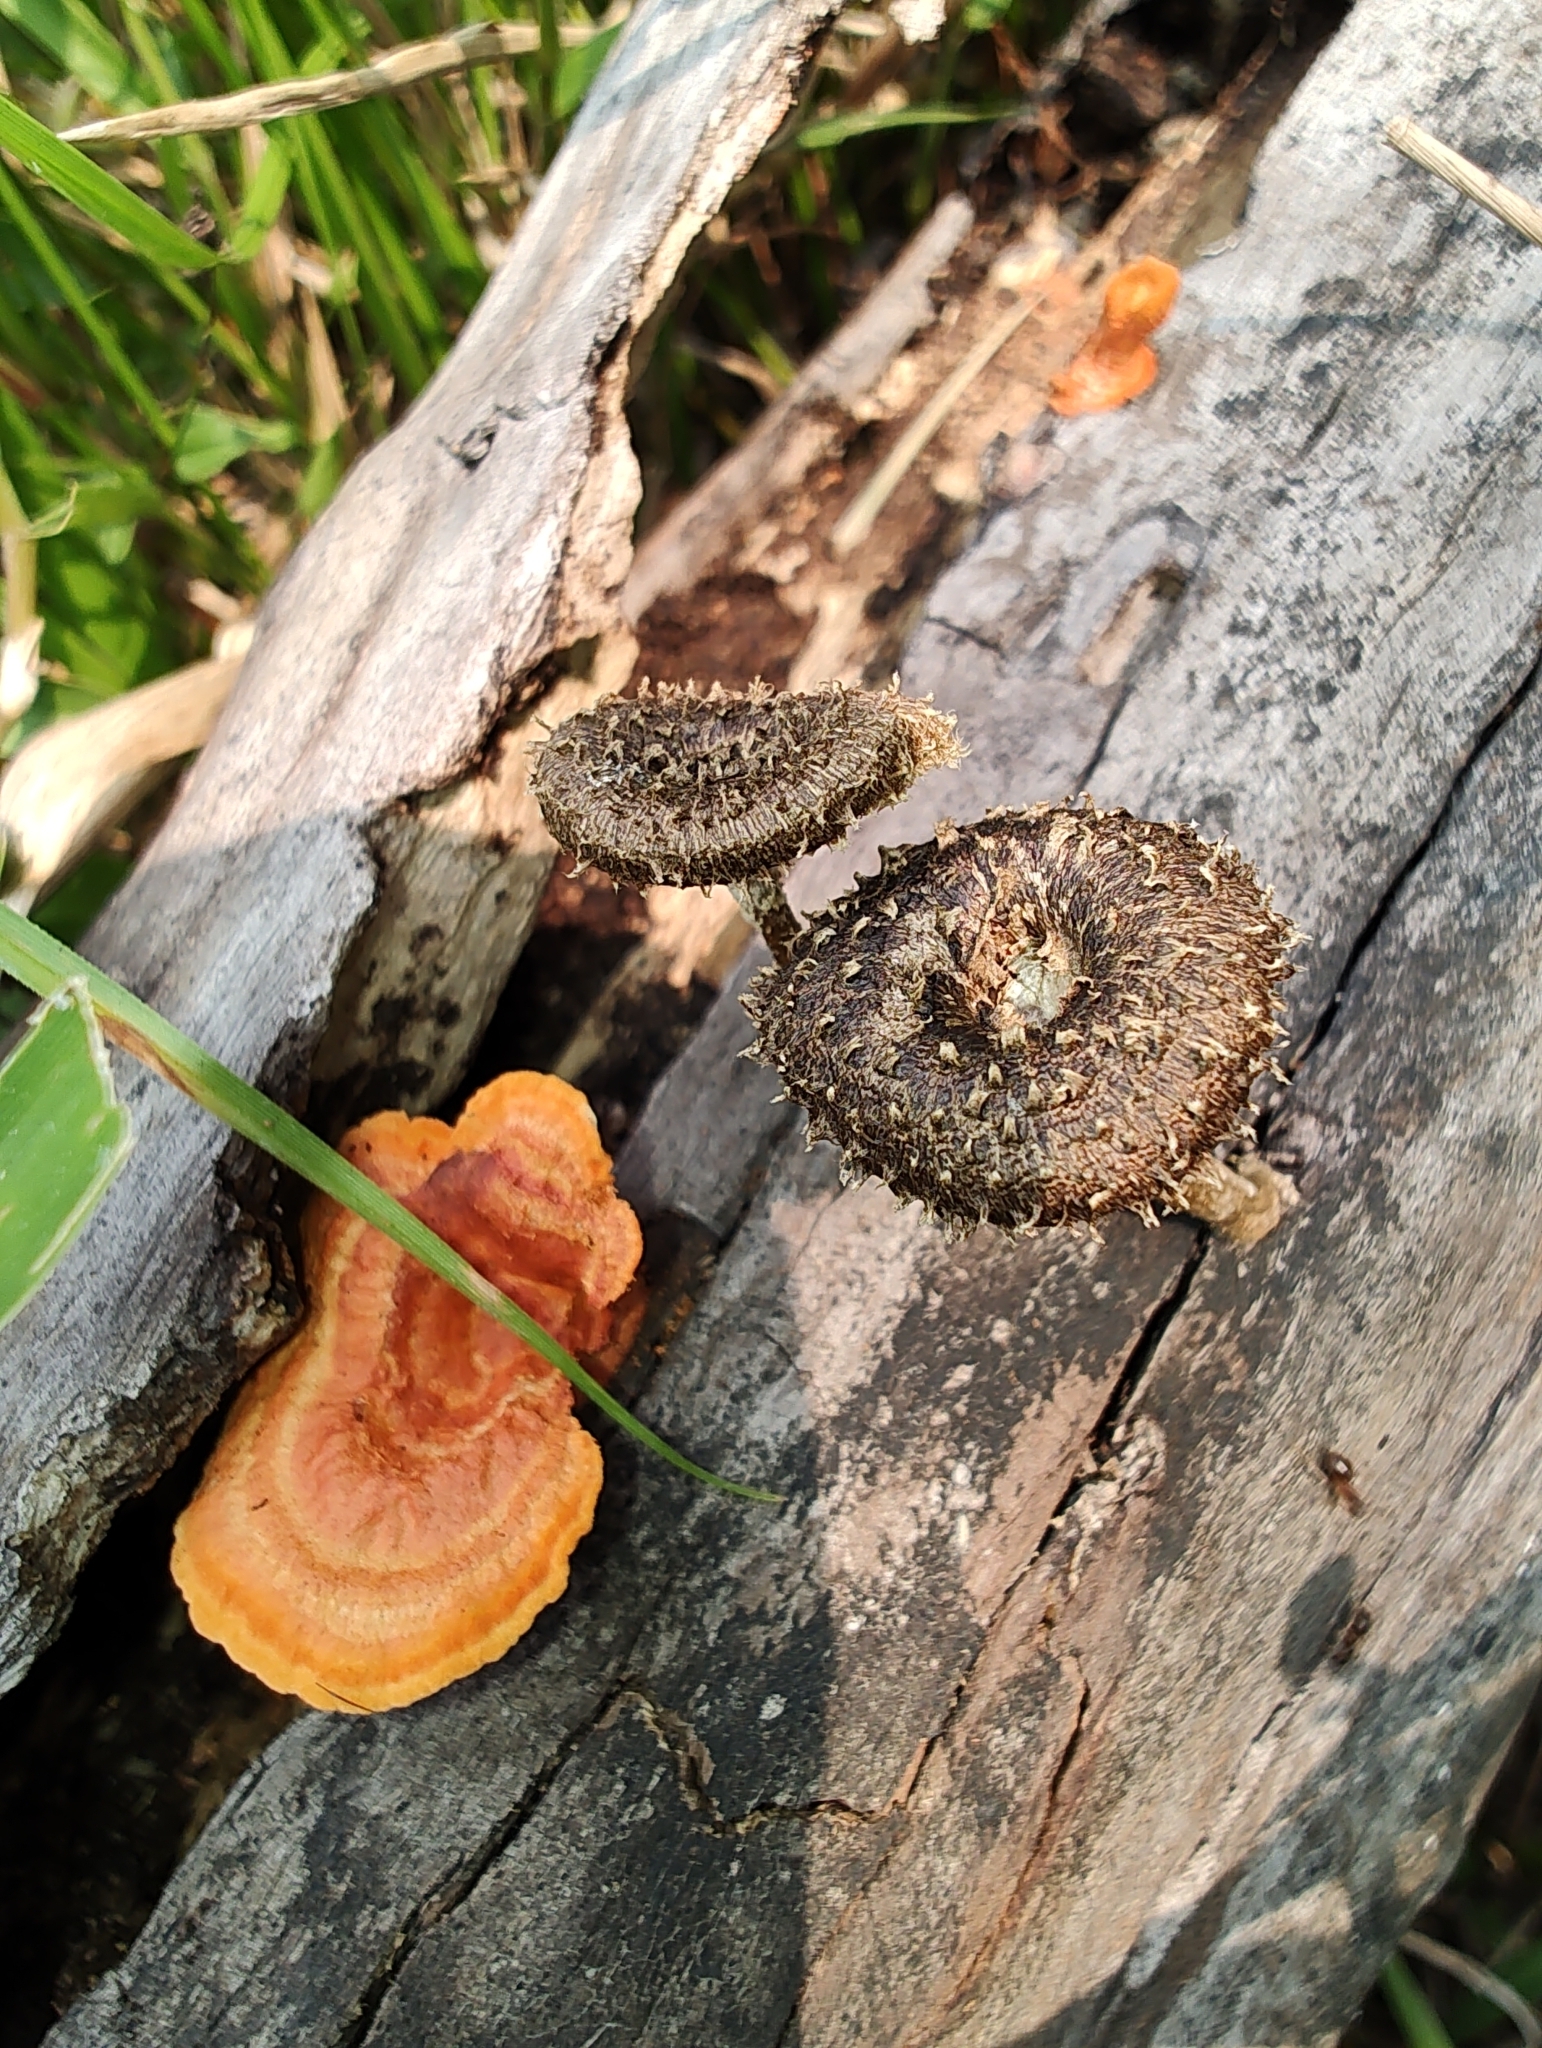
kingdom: Fungi
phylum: Basidiomycota
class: Agaricomycetes
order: Polyporales
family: Polyporaceae
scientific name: Polyporaceae
